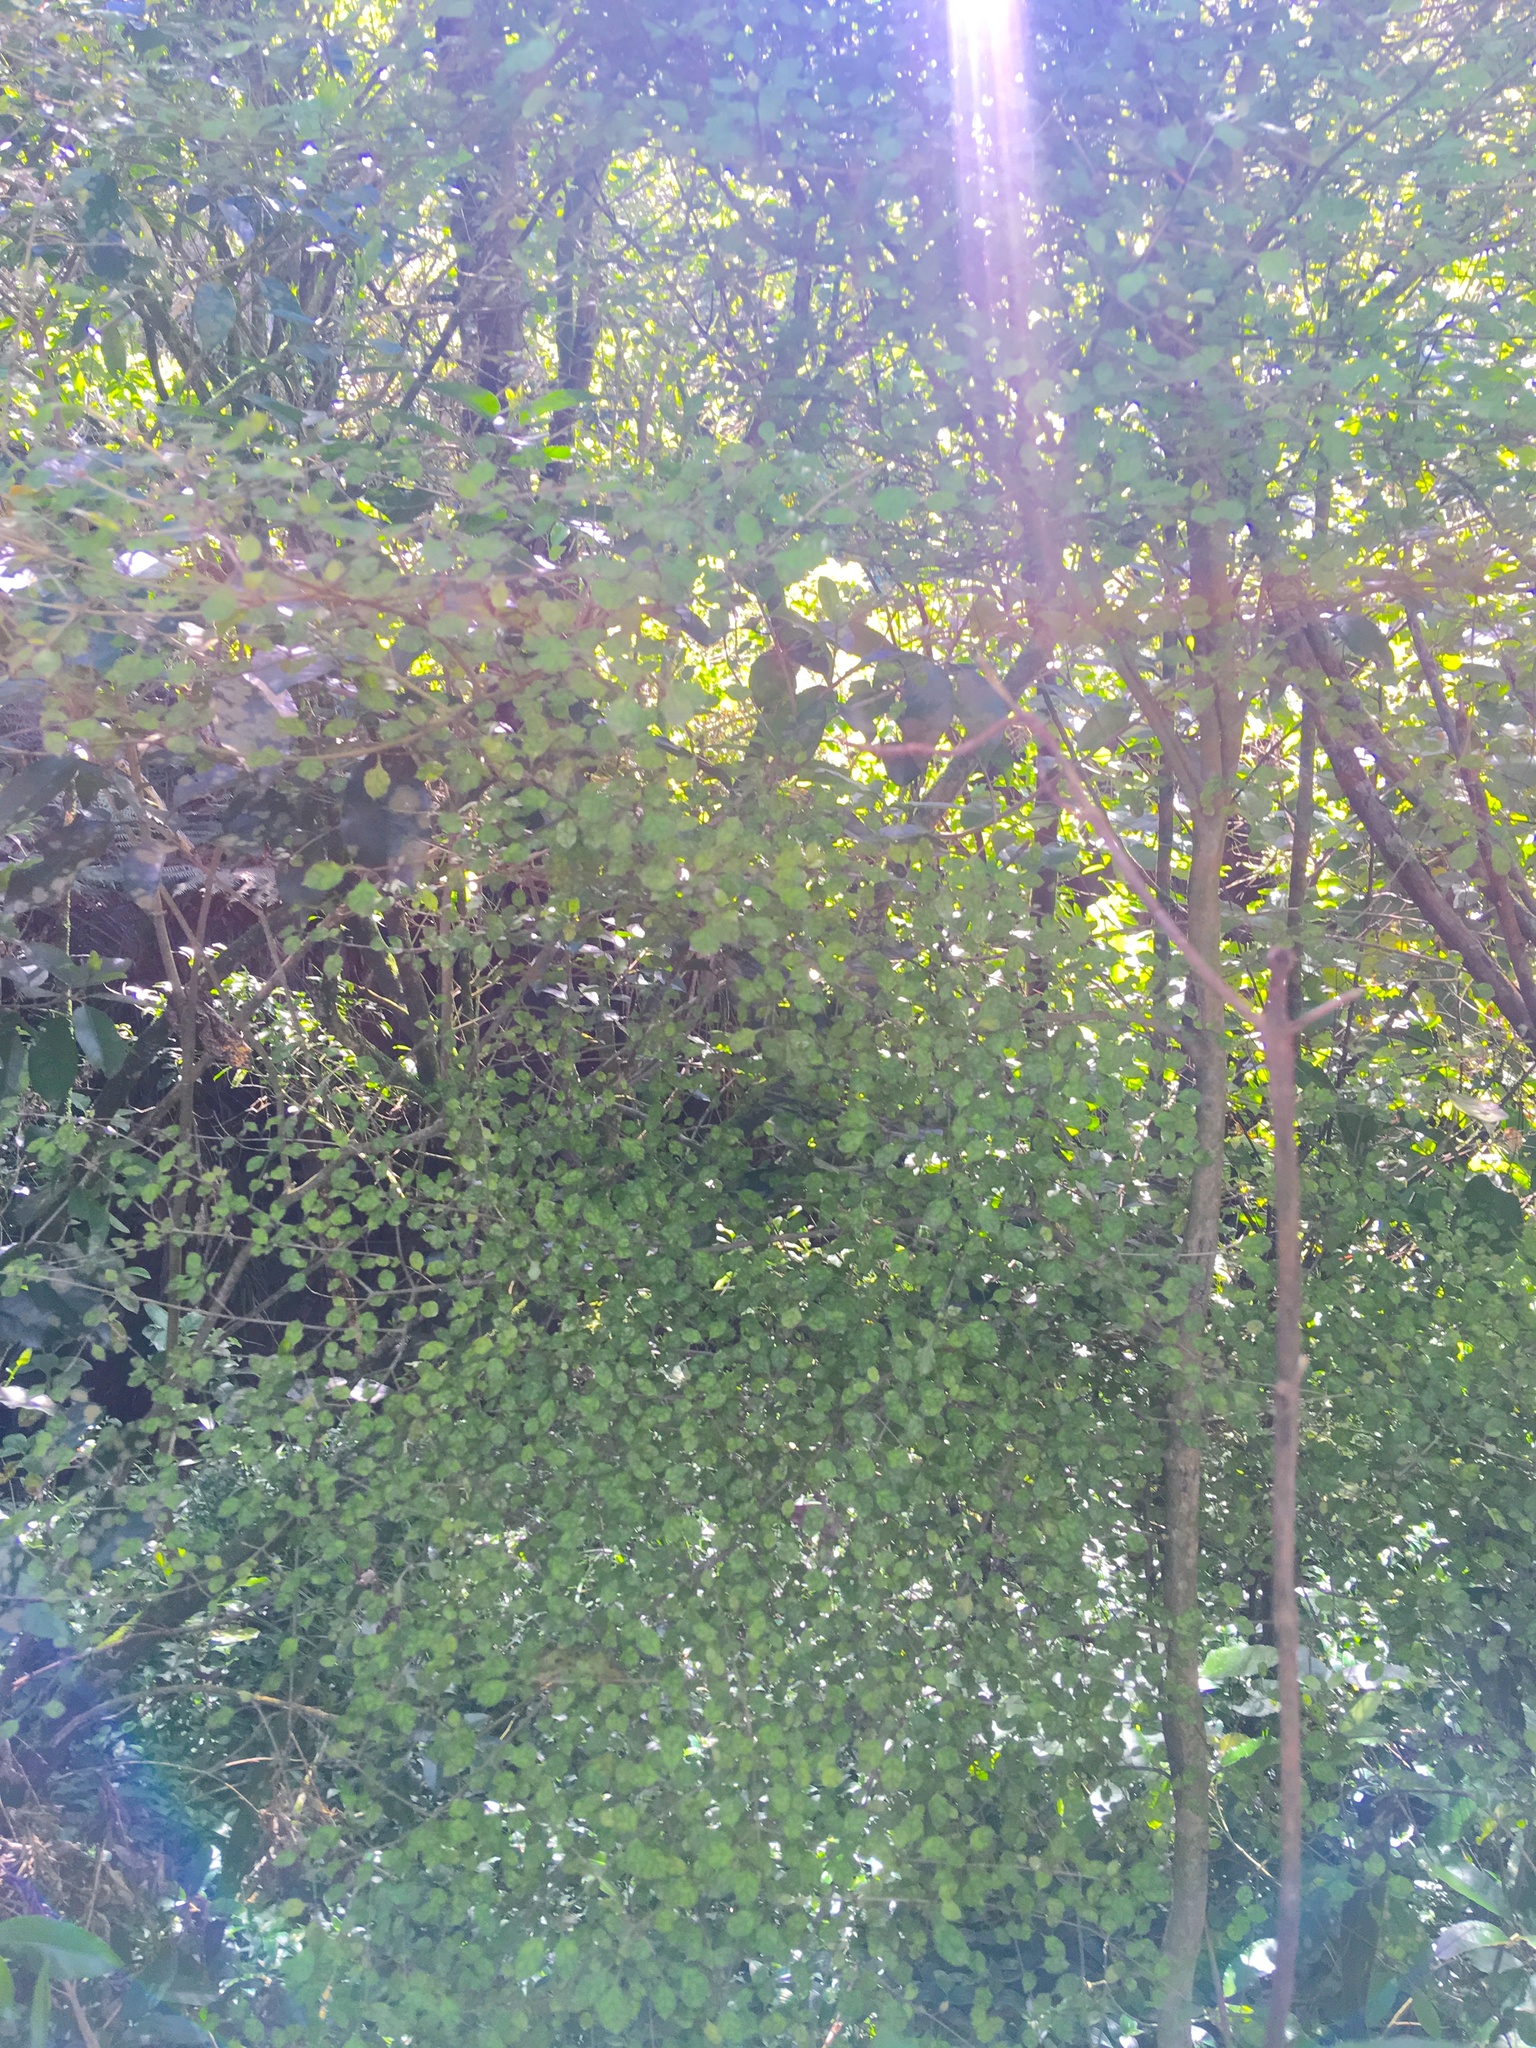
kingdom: Plantae
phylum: Tracheophyta
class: Magnoliopsida
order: Gentianales
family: Rubiaceae
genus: Coprosma
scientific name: Coprosma areolata
